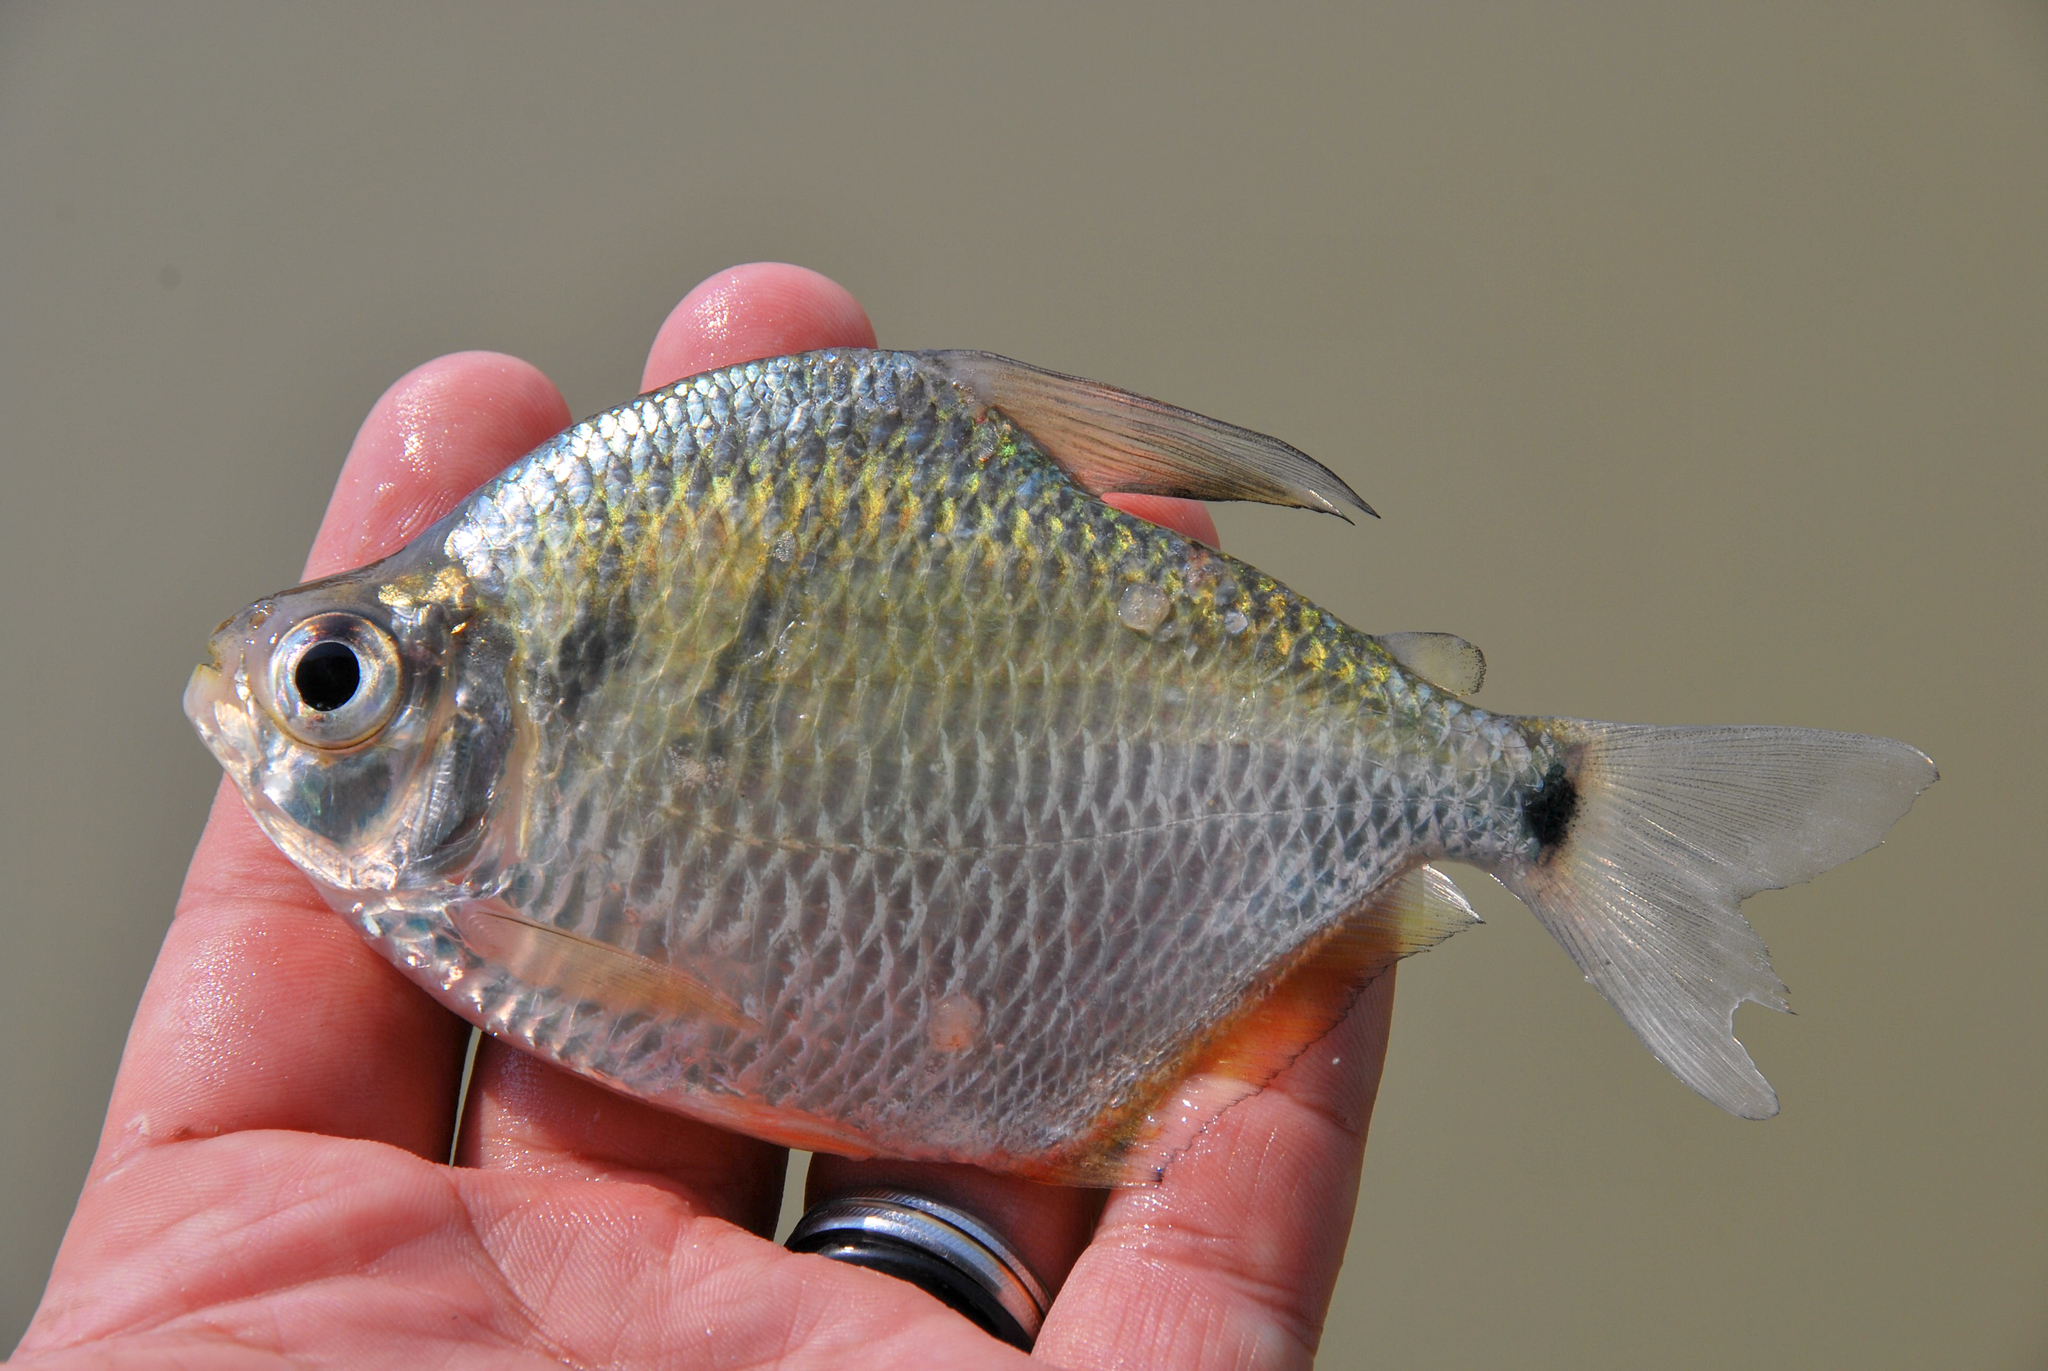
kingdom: Animalia
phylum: Chordata
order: Characiformes
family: Characidae
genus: Tetragonopterus
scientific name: Tetragonopterus argenteus
